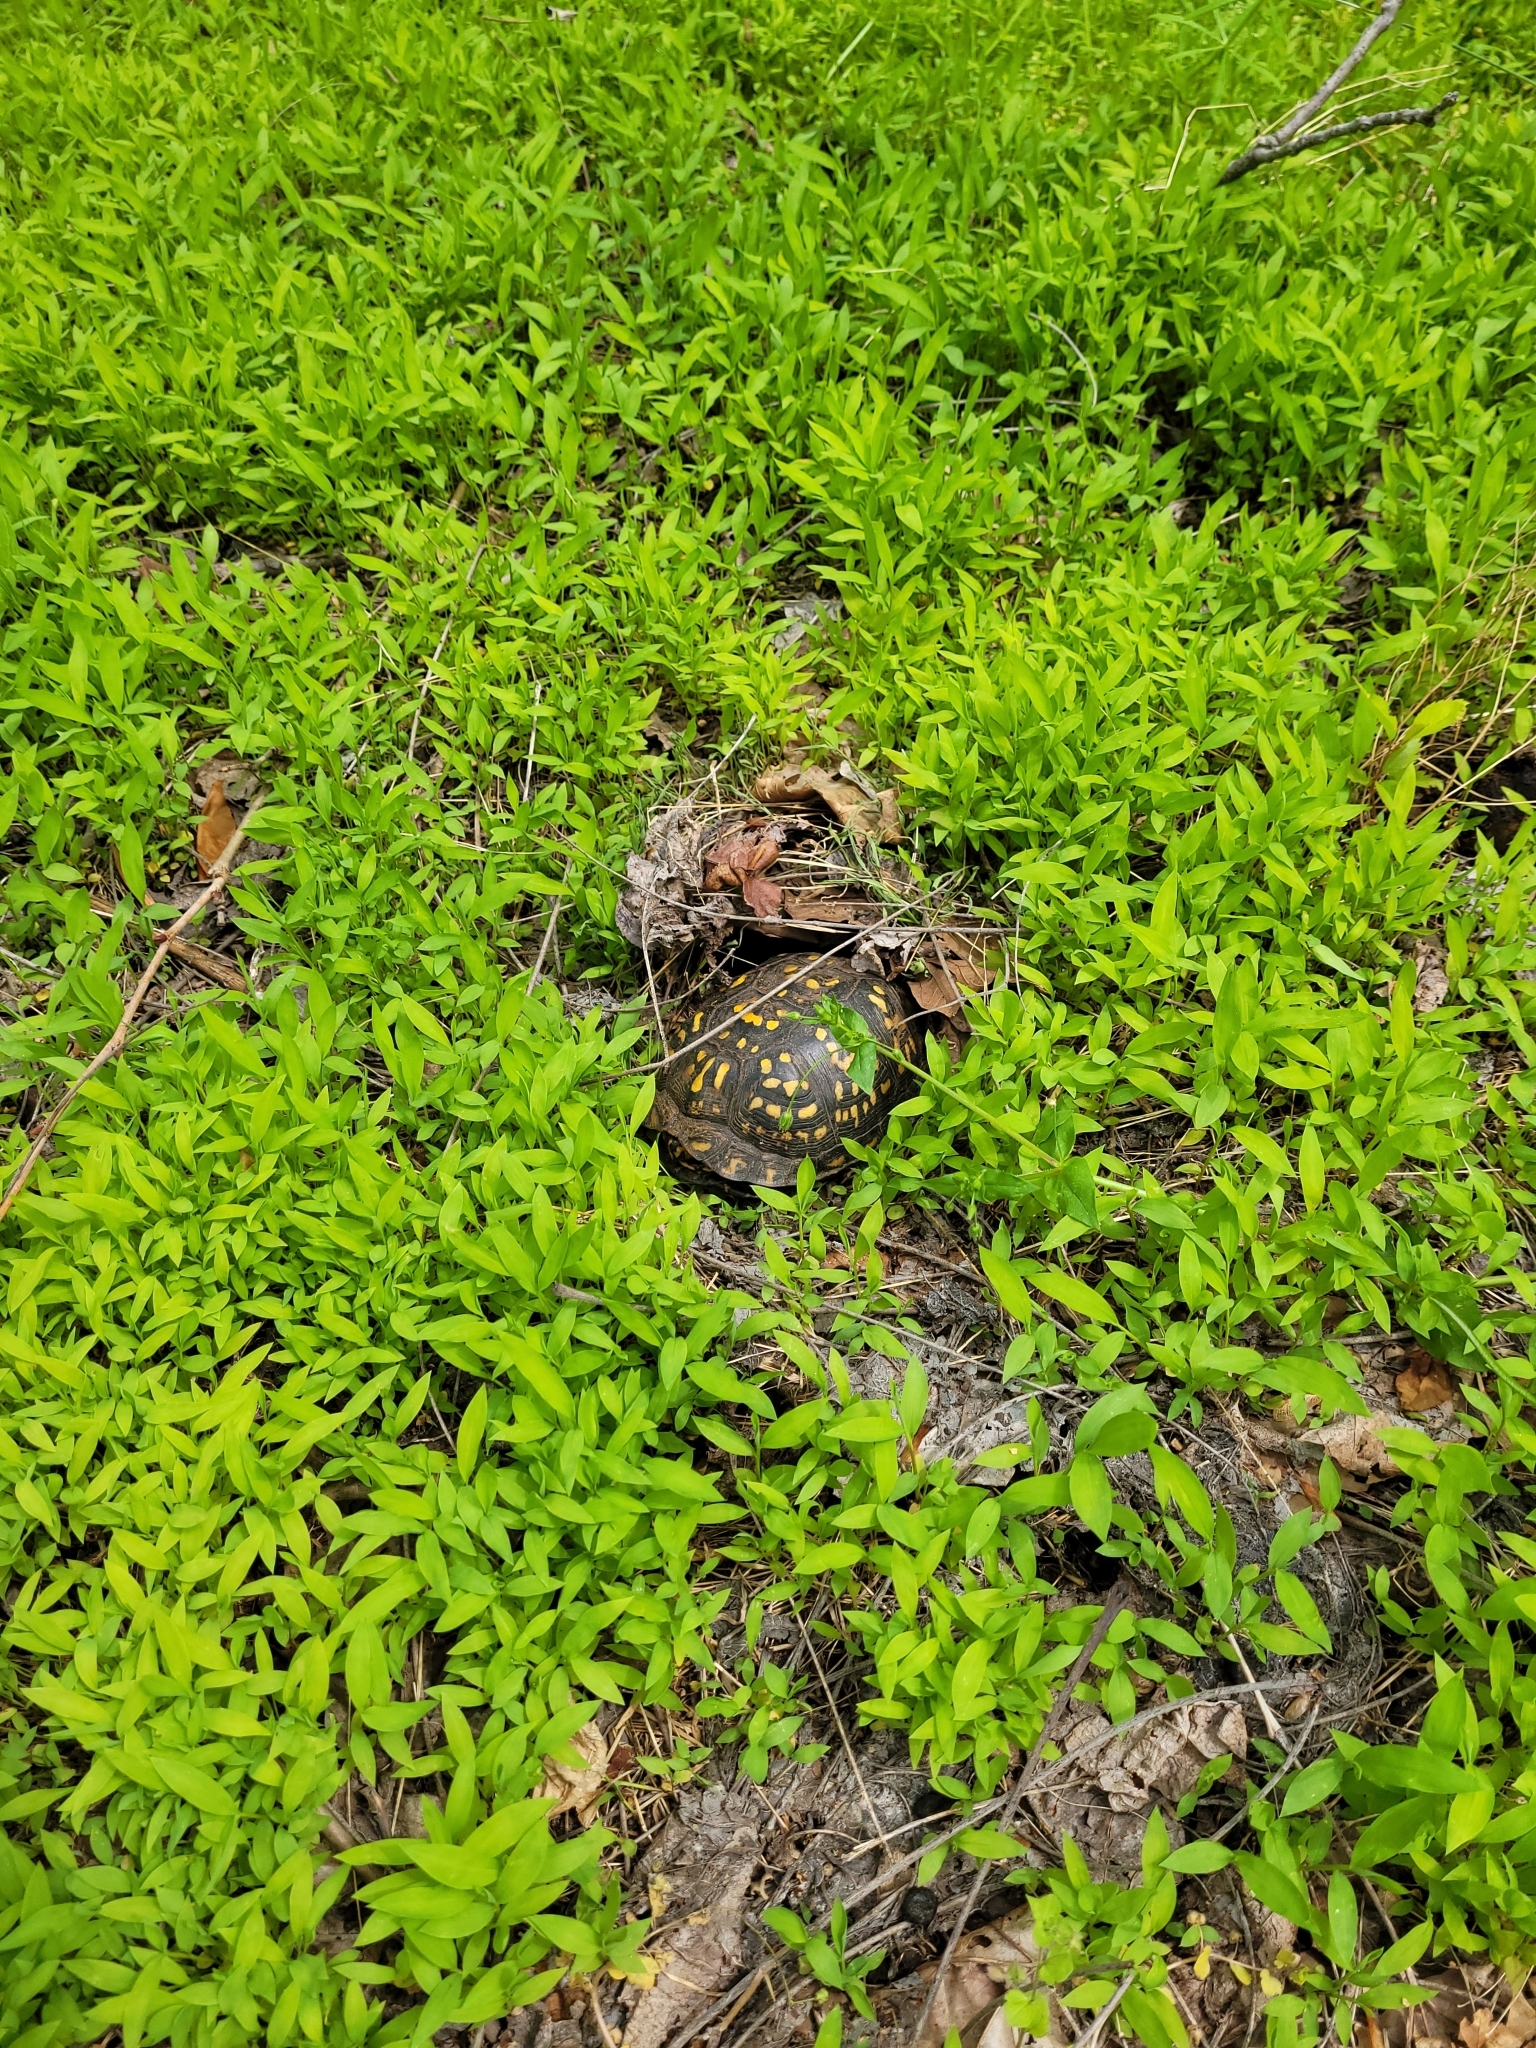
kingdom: Animalia
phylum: Chordata
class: Testudines
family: Emydidae
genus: Terrapene
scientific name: Terrapene carolina
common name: Common box turtle
